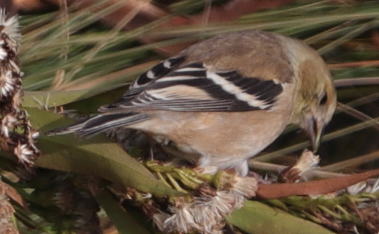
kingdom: Animalia
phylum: Chordata
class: Aves
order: Passeriformes
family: Fringillidae
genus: Spinus
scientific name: Spinus tristis
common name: American goldfinch
